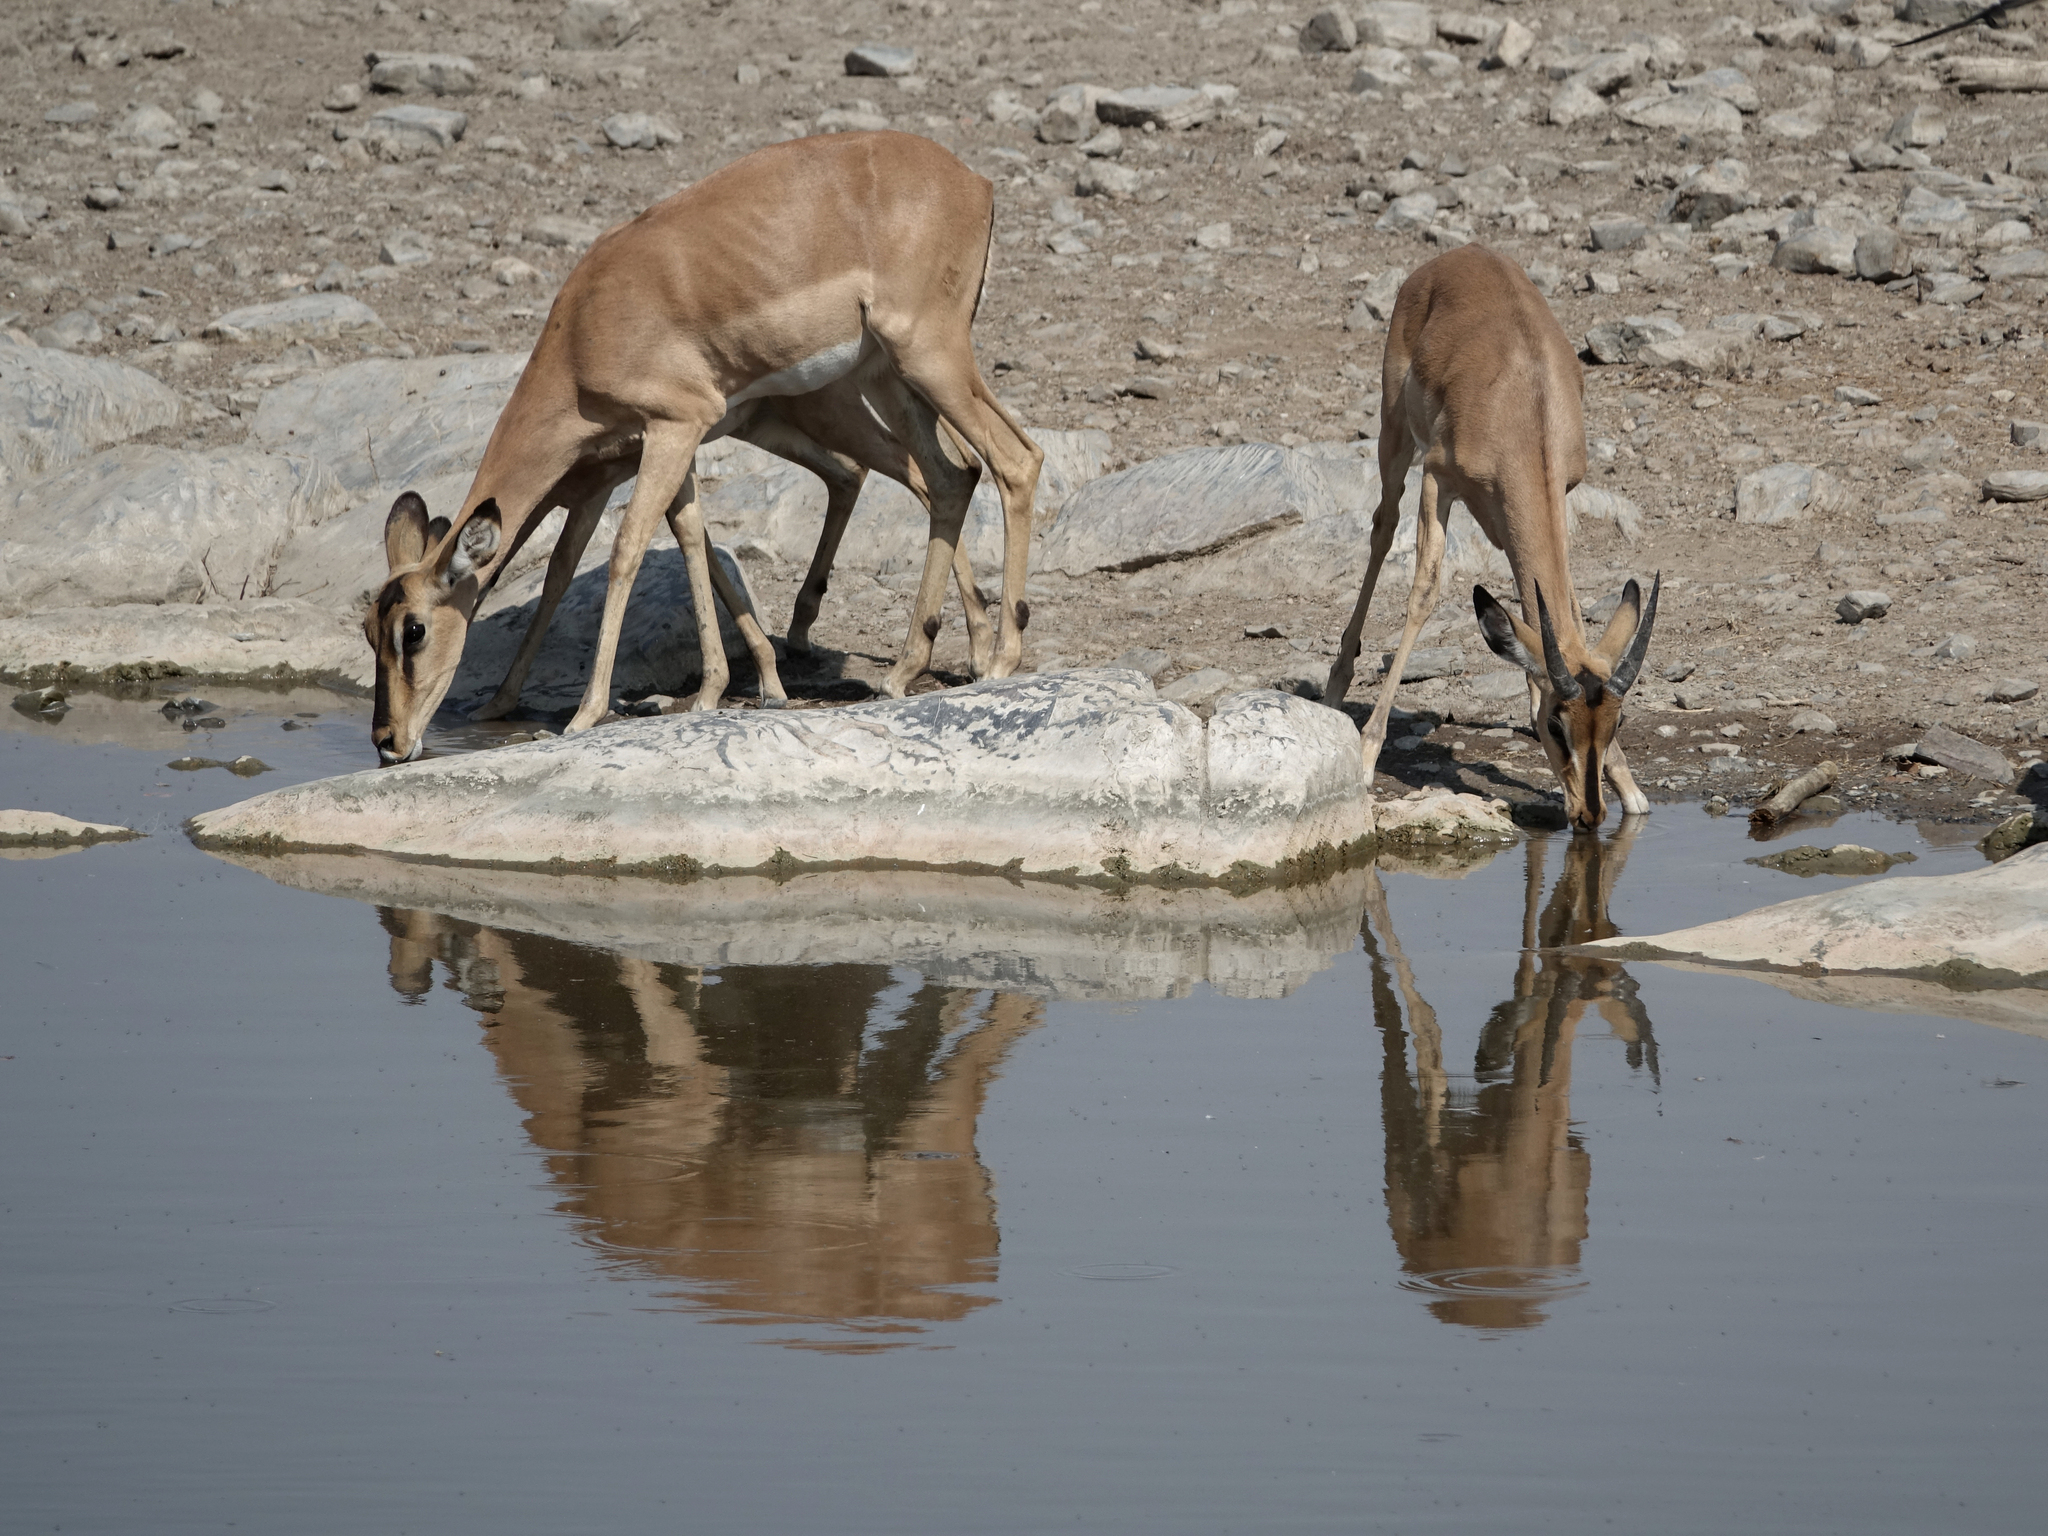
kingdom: Animalia
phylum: Chordata
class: Mammalia
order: Artiodactyla
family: Bovidae
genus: Aepyceros
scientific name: Aepyceros melampus
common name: Impala
